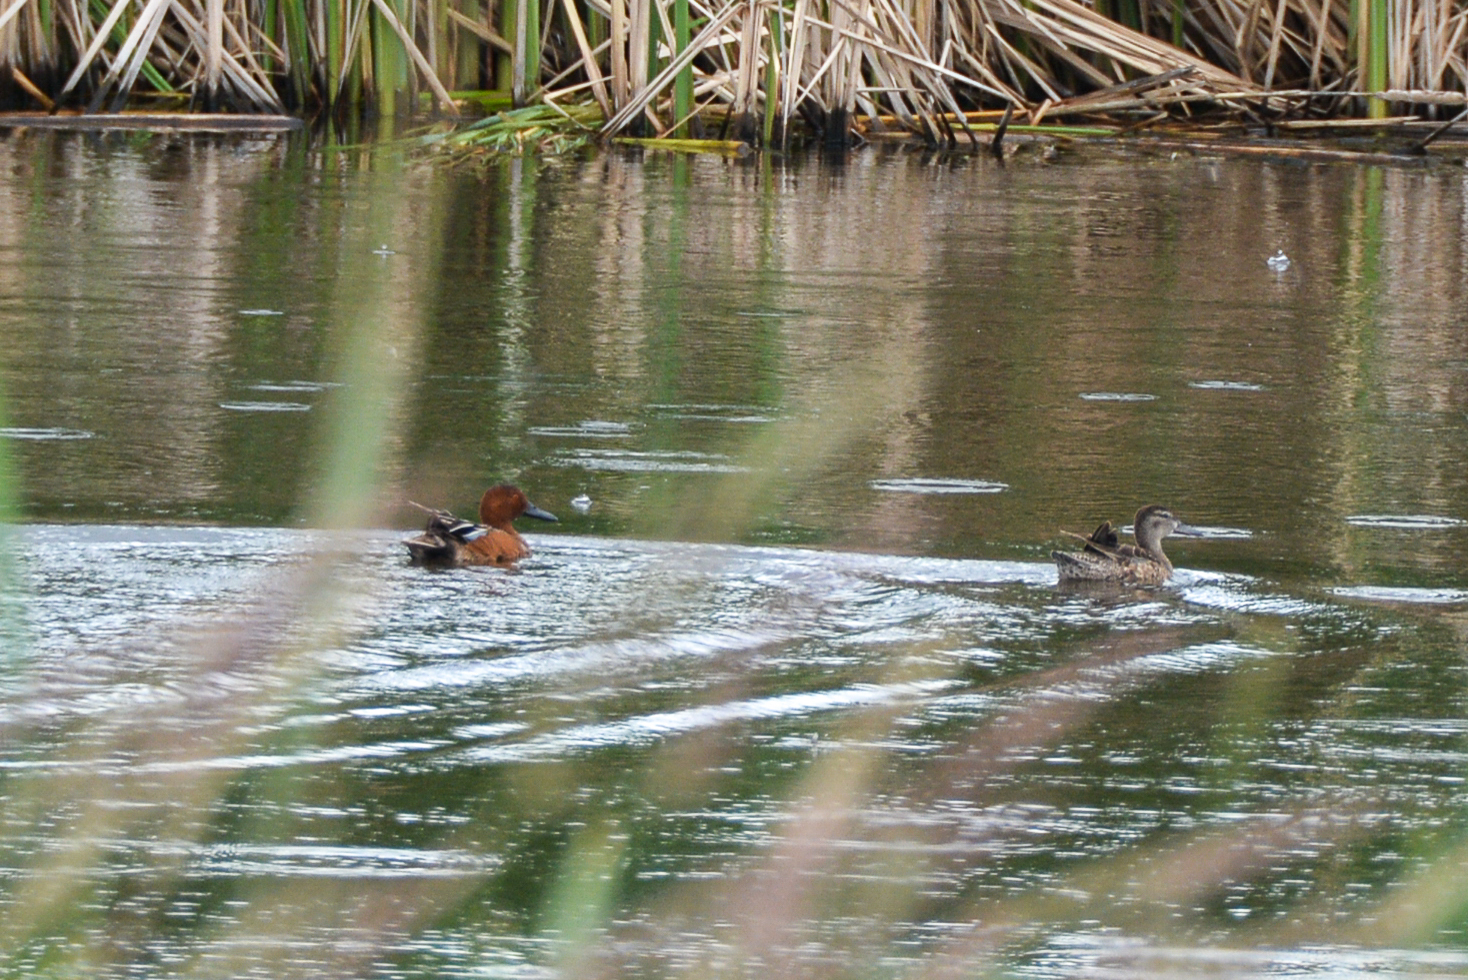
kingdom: Animalia
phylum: Chordata
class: Aves
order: Anseriformes
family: Anatidae
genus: Spatula
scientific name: Spatula cyanoptera
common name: Cinnamon teal
